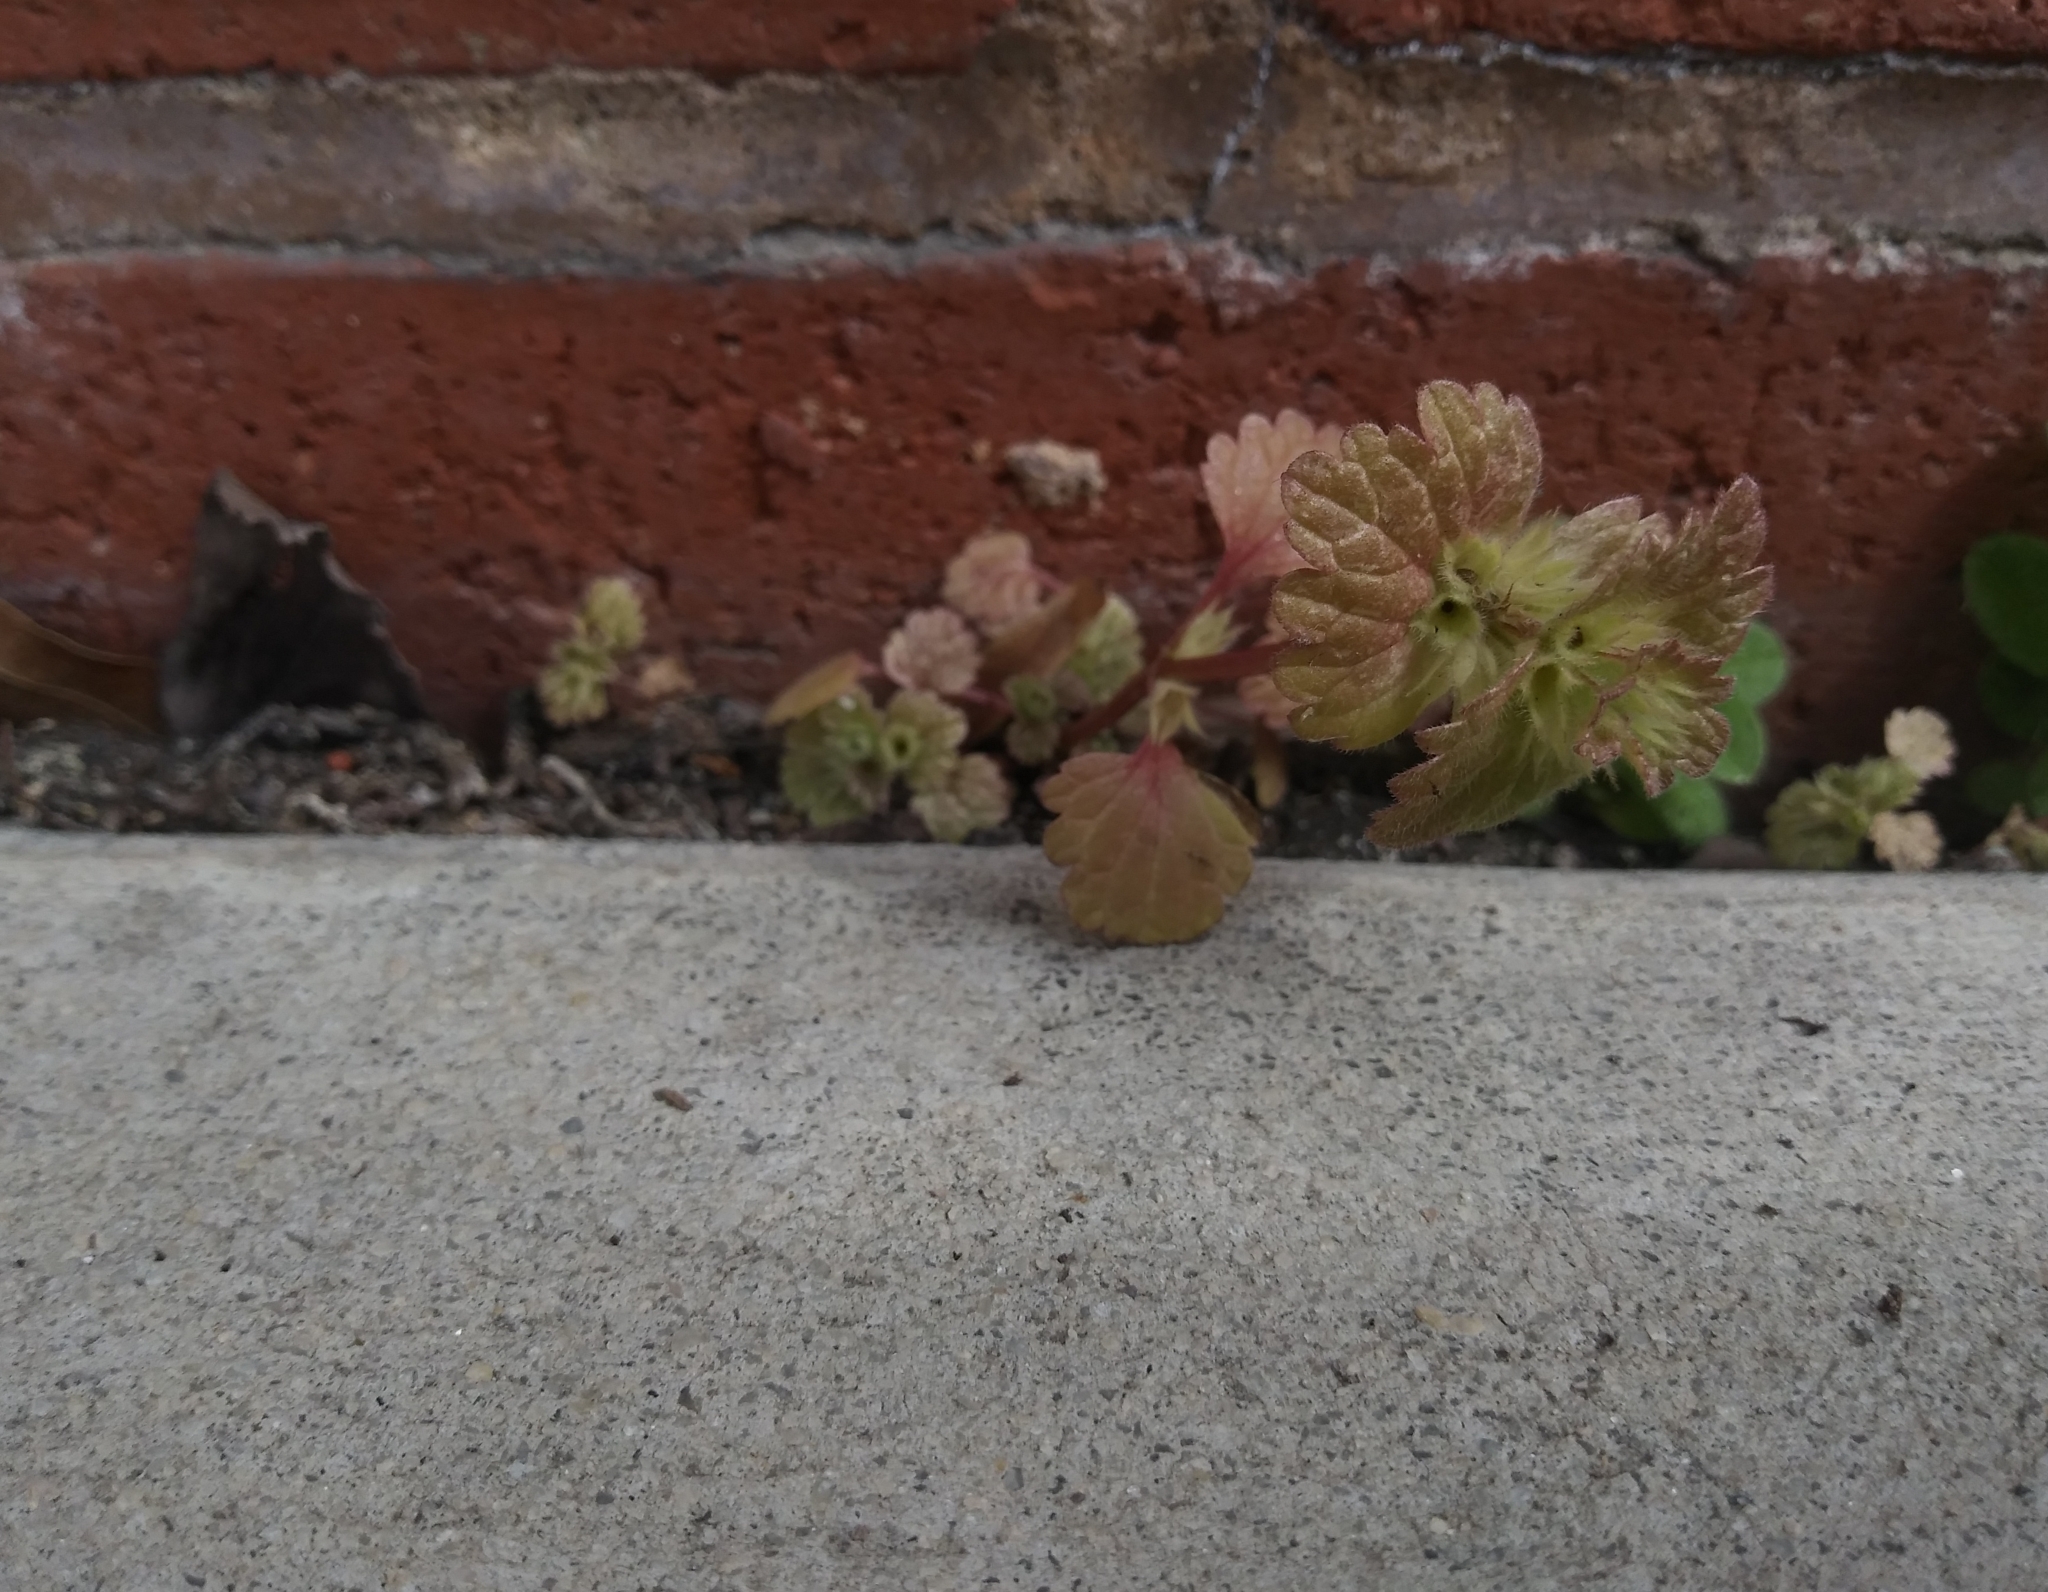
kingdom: Plantae
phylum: Tracheophyta
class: Magnoliopsida
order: Lamiales
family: Lamiaceae
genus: Lamium
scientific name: Lamium amplexicaule
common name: Henbit dead-nettle
